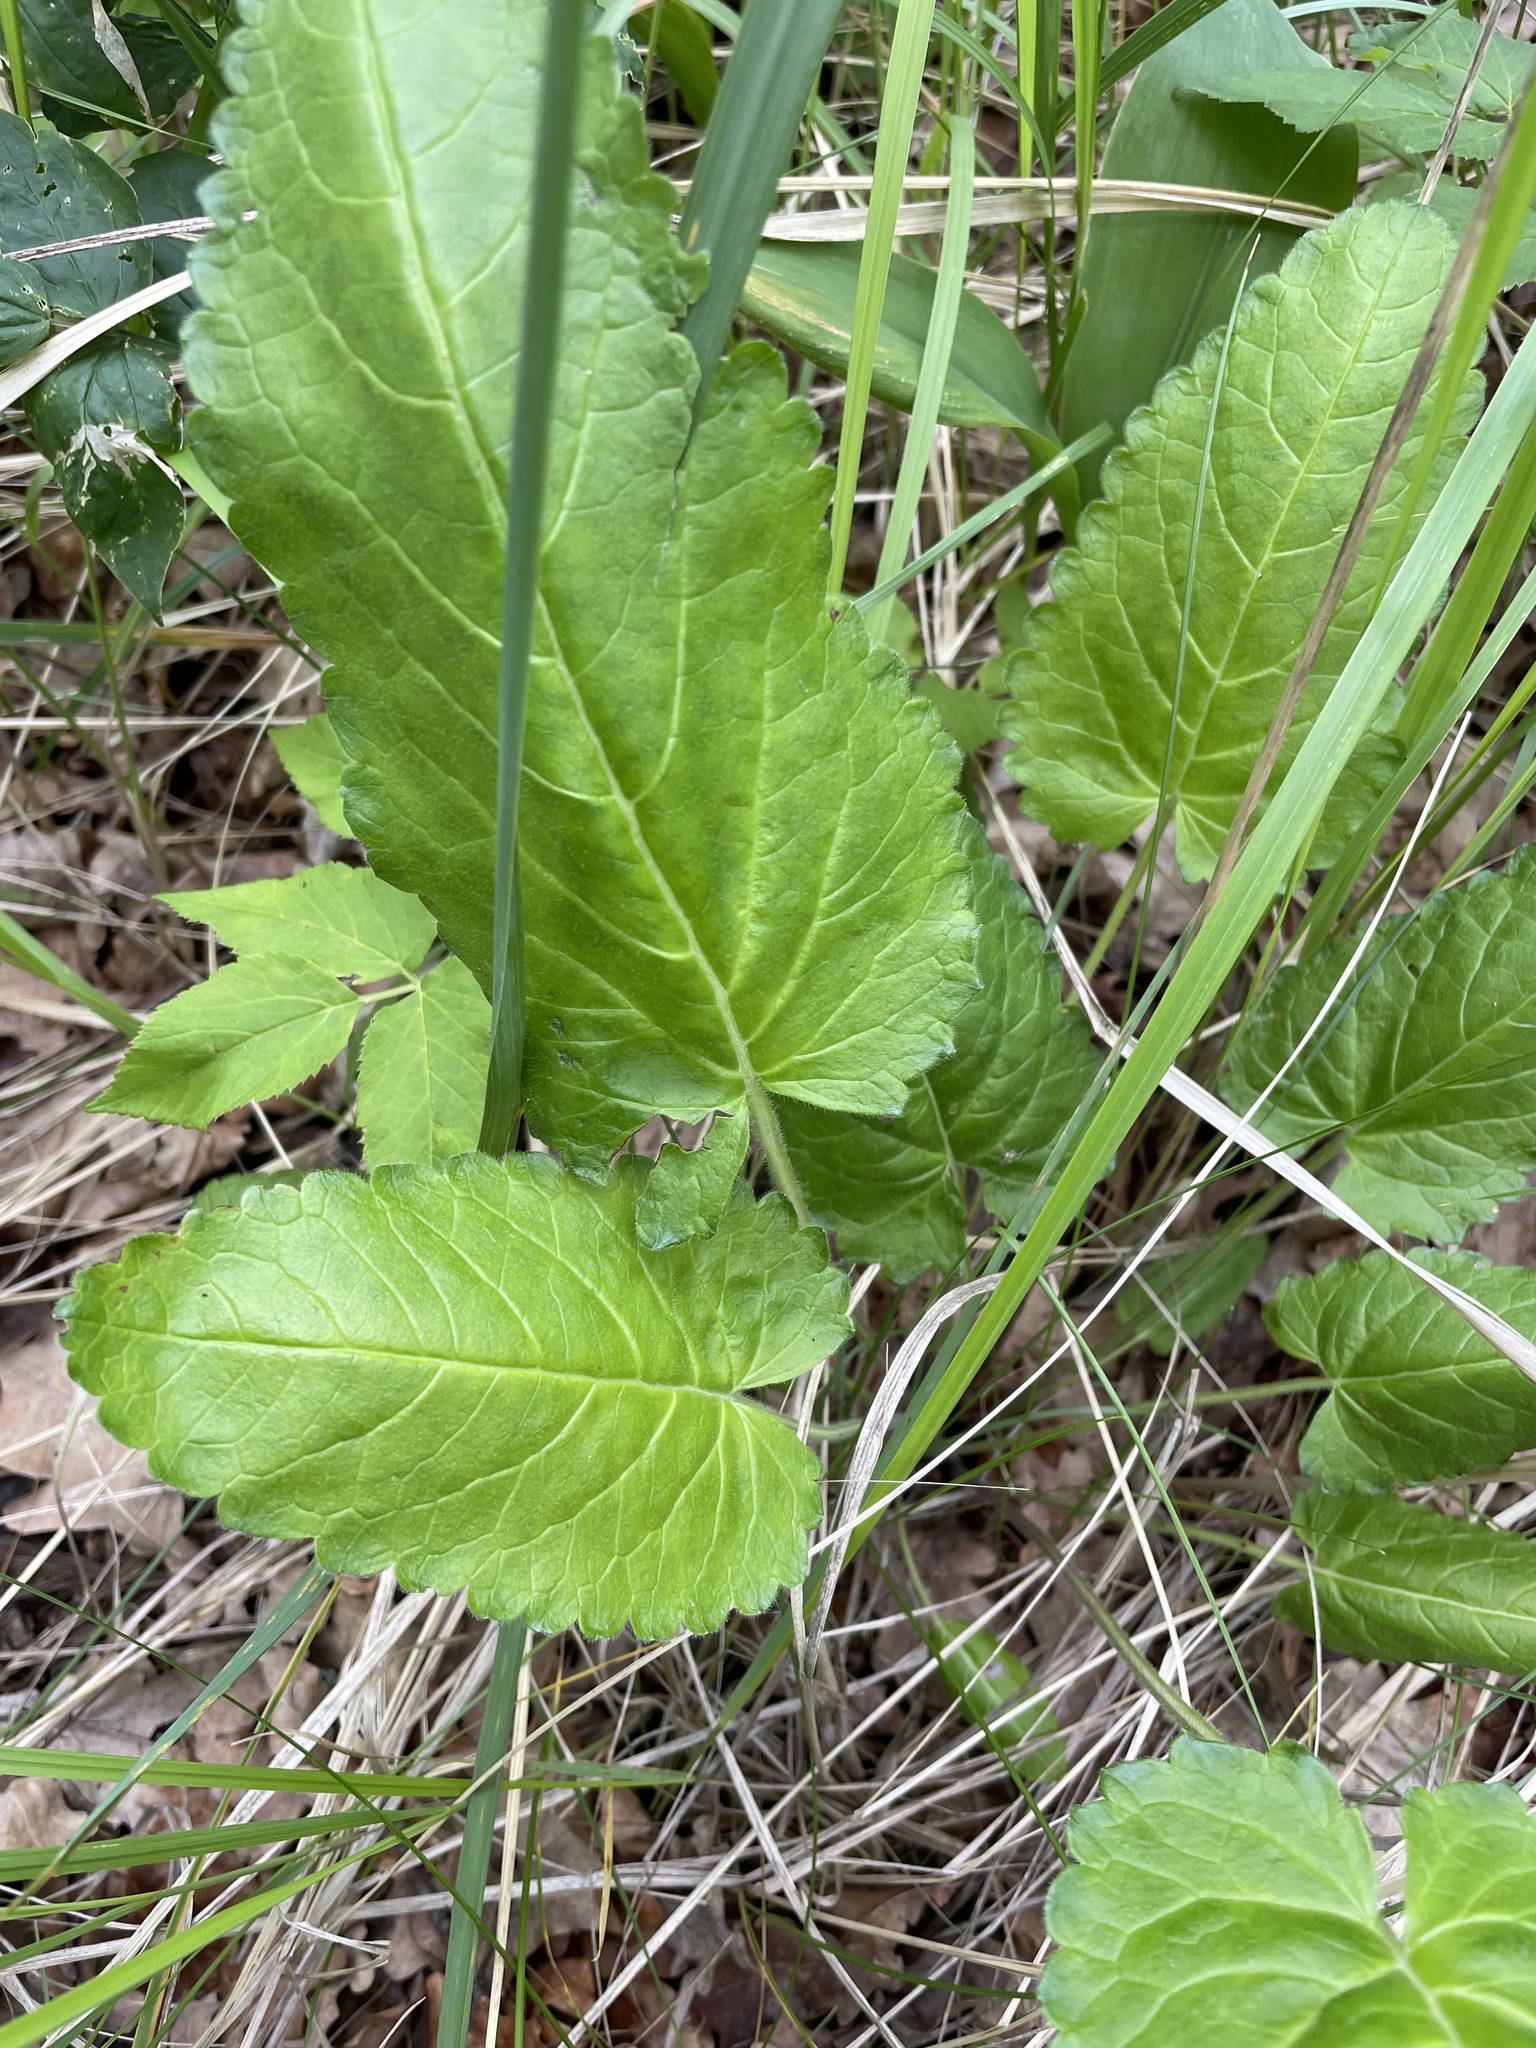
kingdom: Plantae
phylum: Tracheophyta
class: Magnoliopsida
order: Lamiales
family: Lamiaceae
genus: Betonica
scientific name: Betonica officinalis
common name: Bishop's-wort
